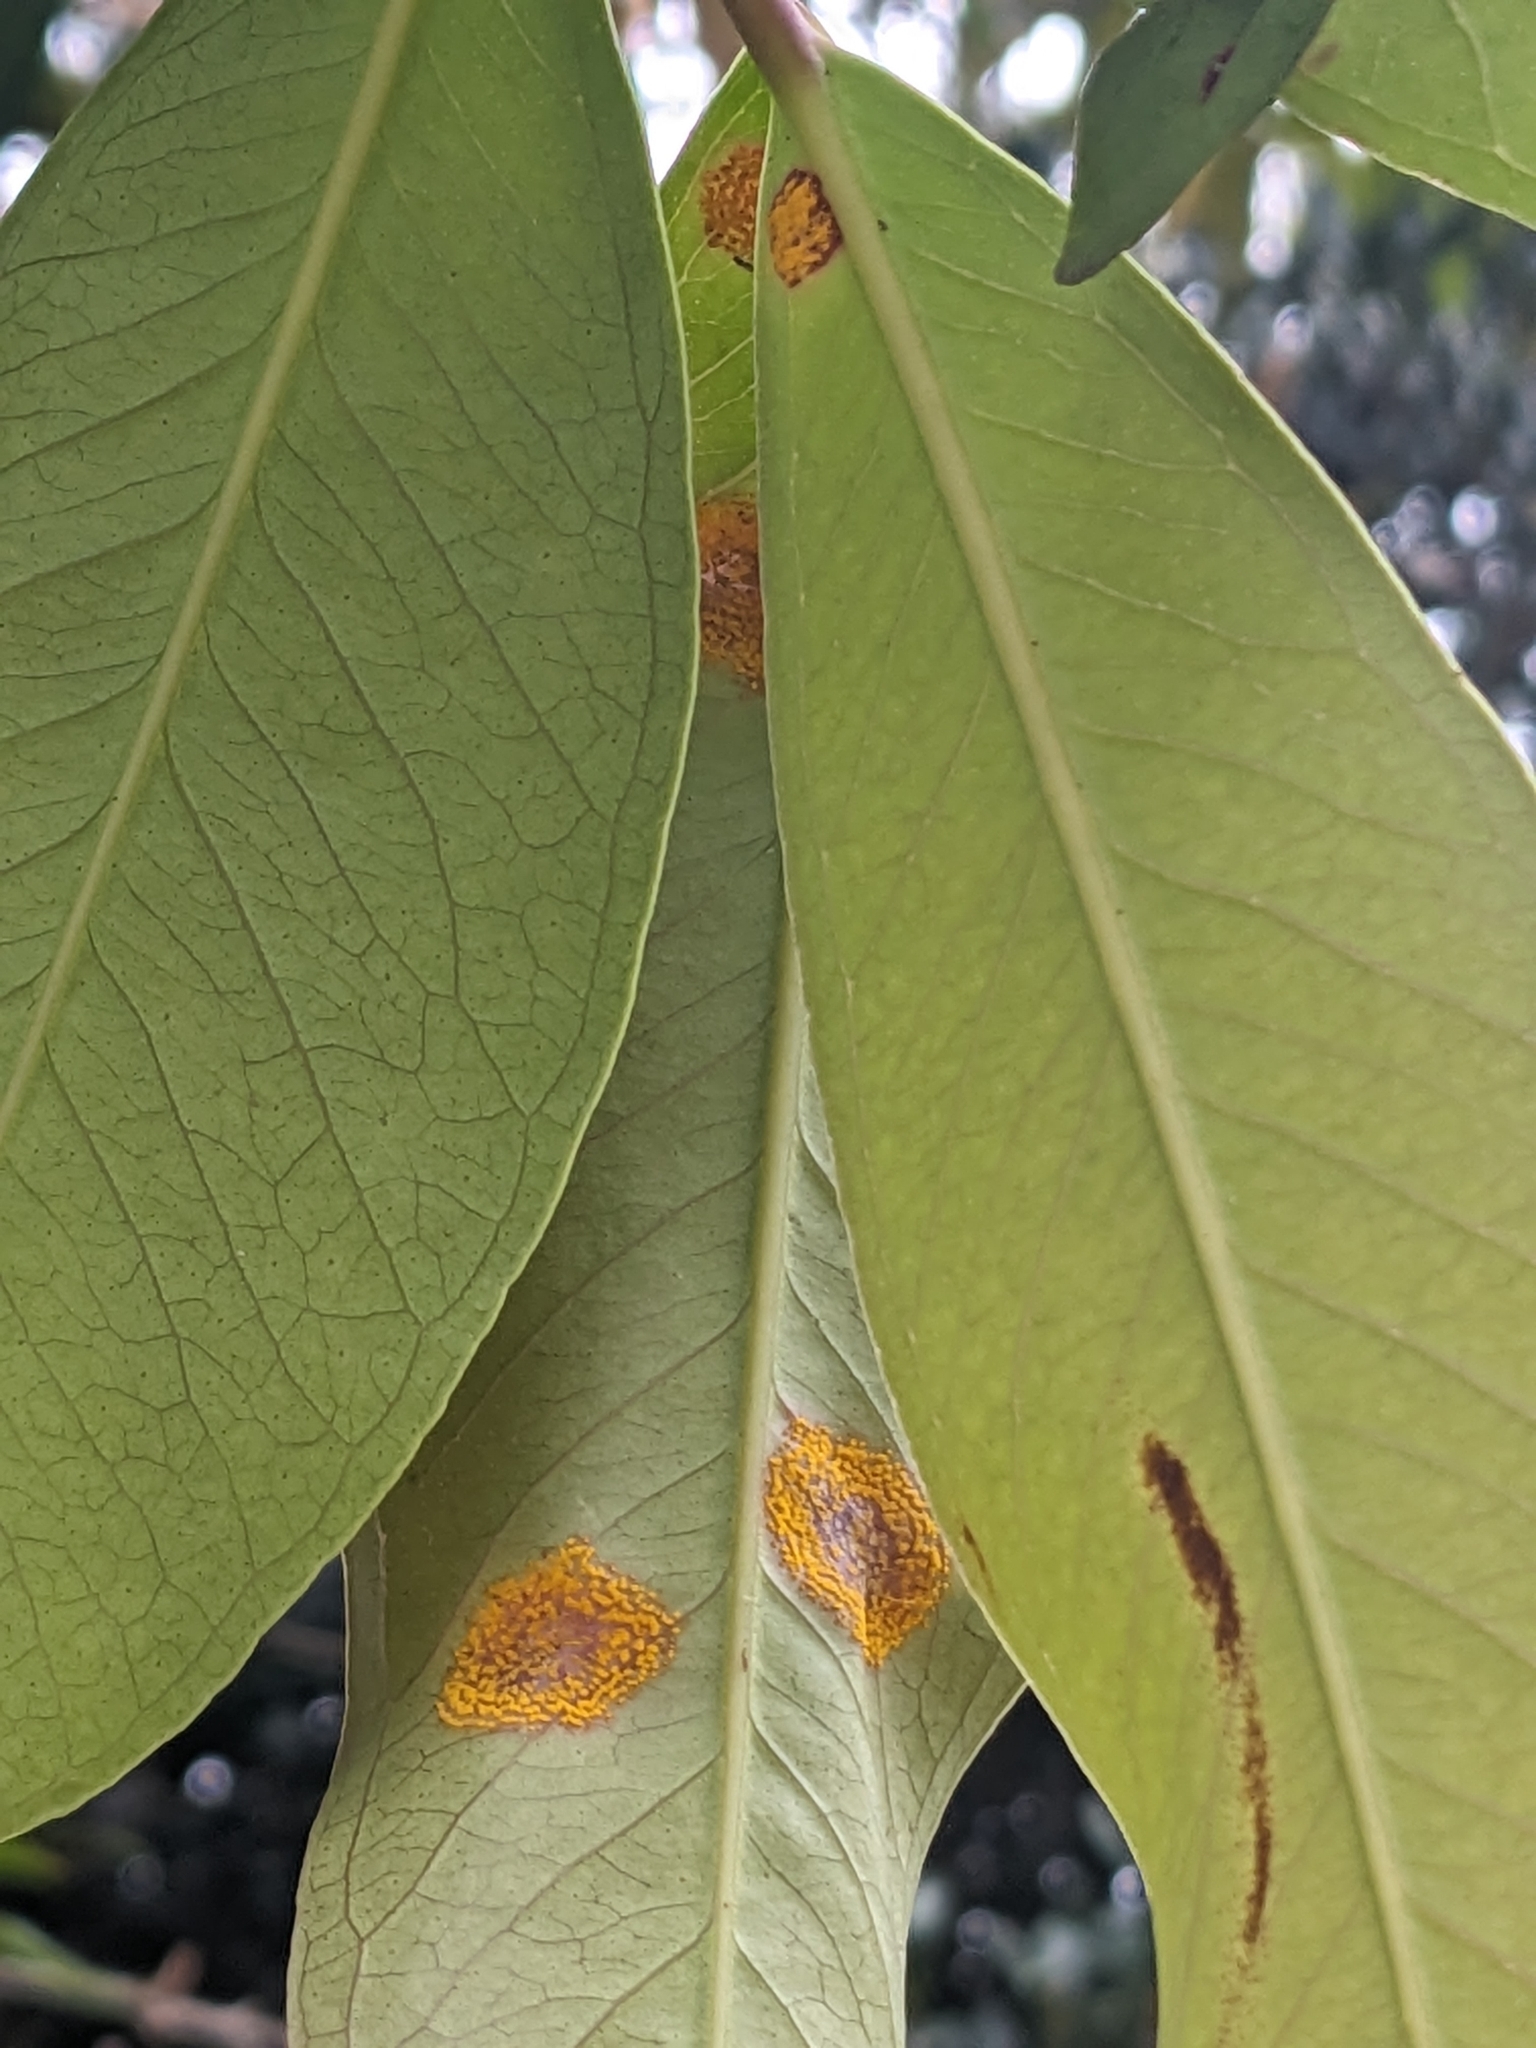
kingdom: Fungi
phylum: Basidiomycota
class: Pucciniomycetes
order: Pucciniales
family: Sphaerophragmiaceae
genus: Austropuccinia
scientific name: Austropuccinia psidii
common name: Myrtle rust
